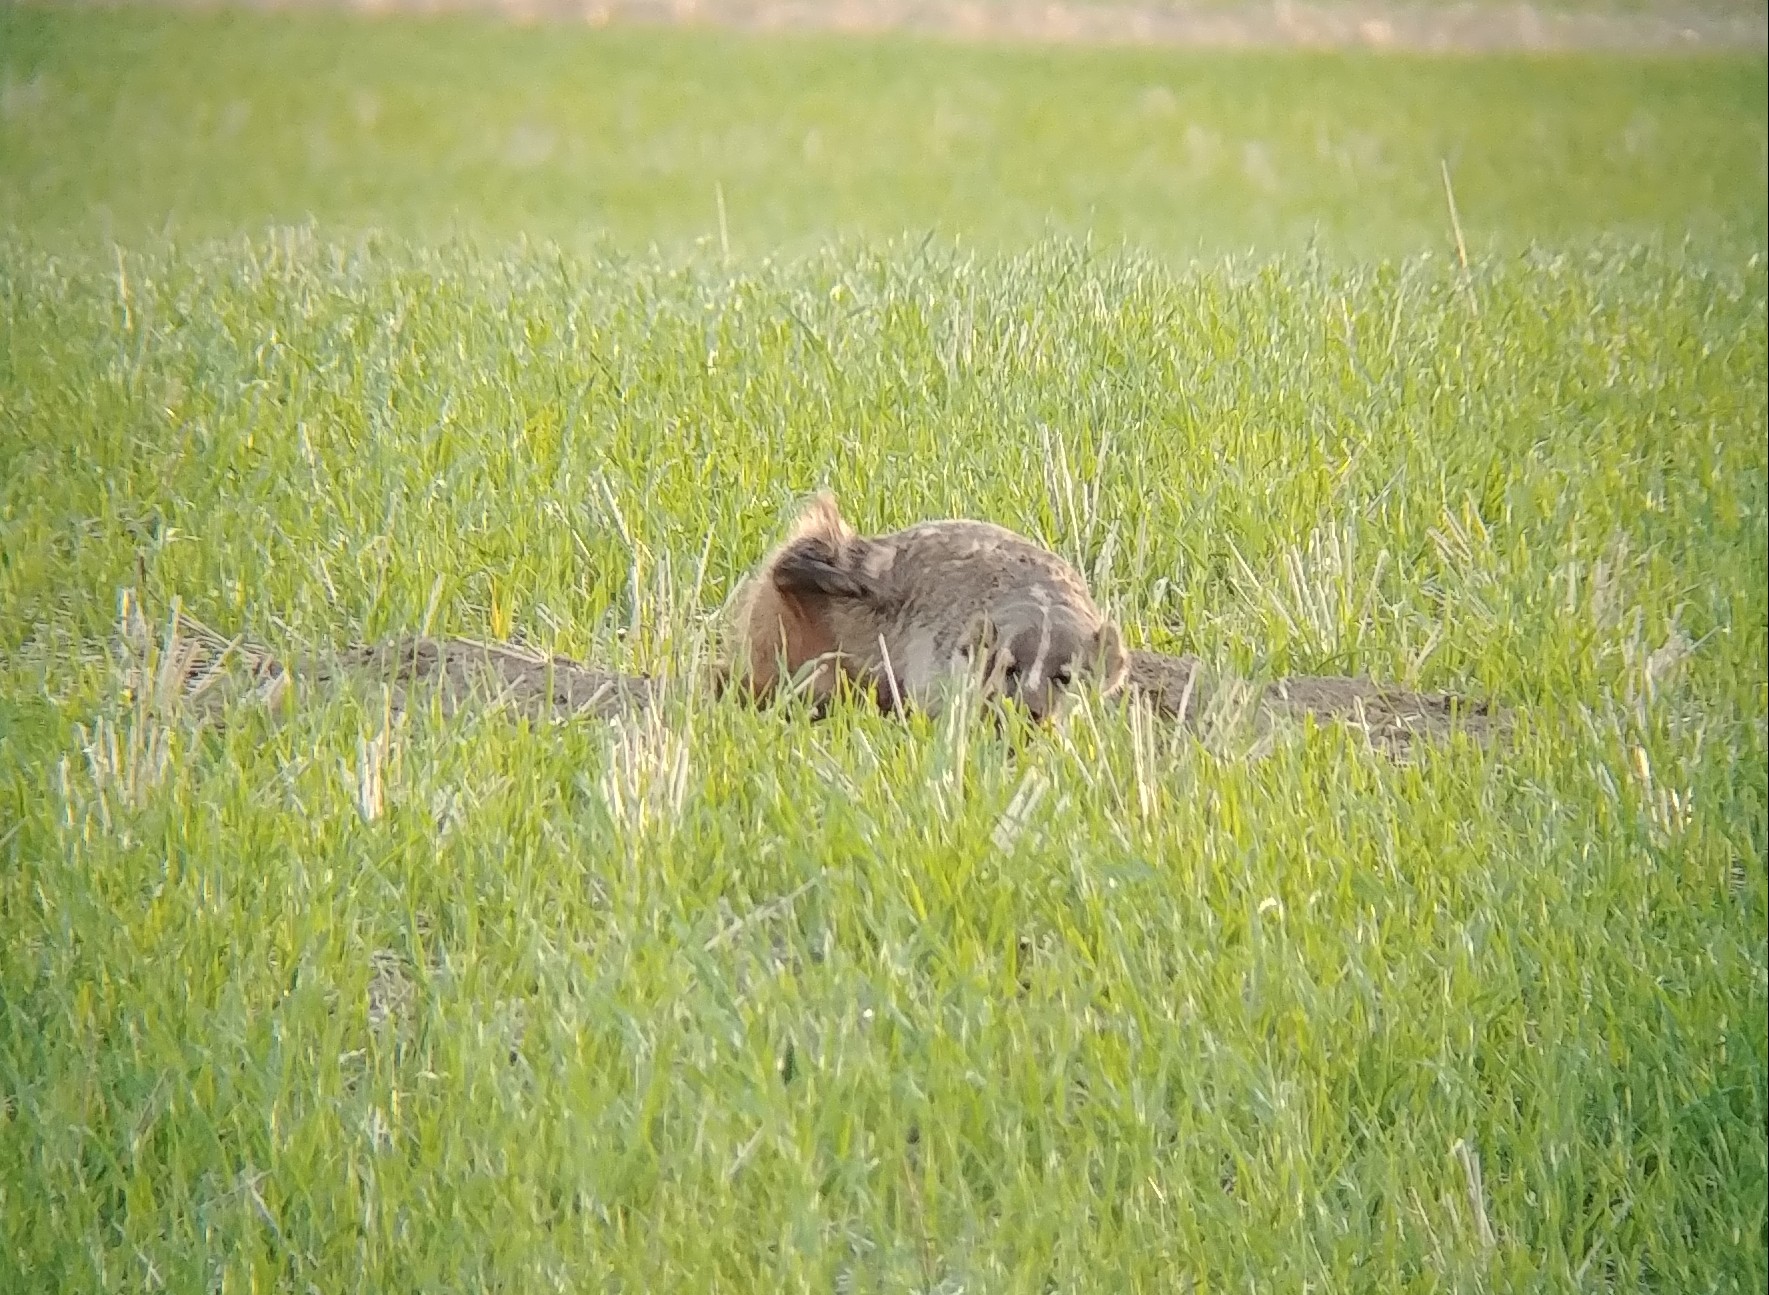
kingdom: Animalia
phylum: Chordata
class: Mammalia
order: Carnivora
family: Mustelidae
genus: Taxidea
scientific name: Taxidea taxus
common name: American badger
